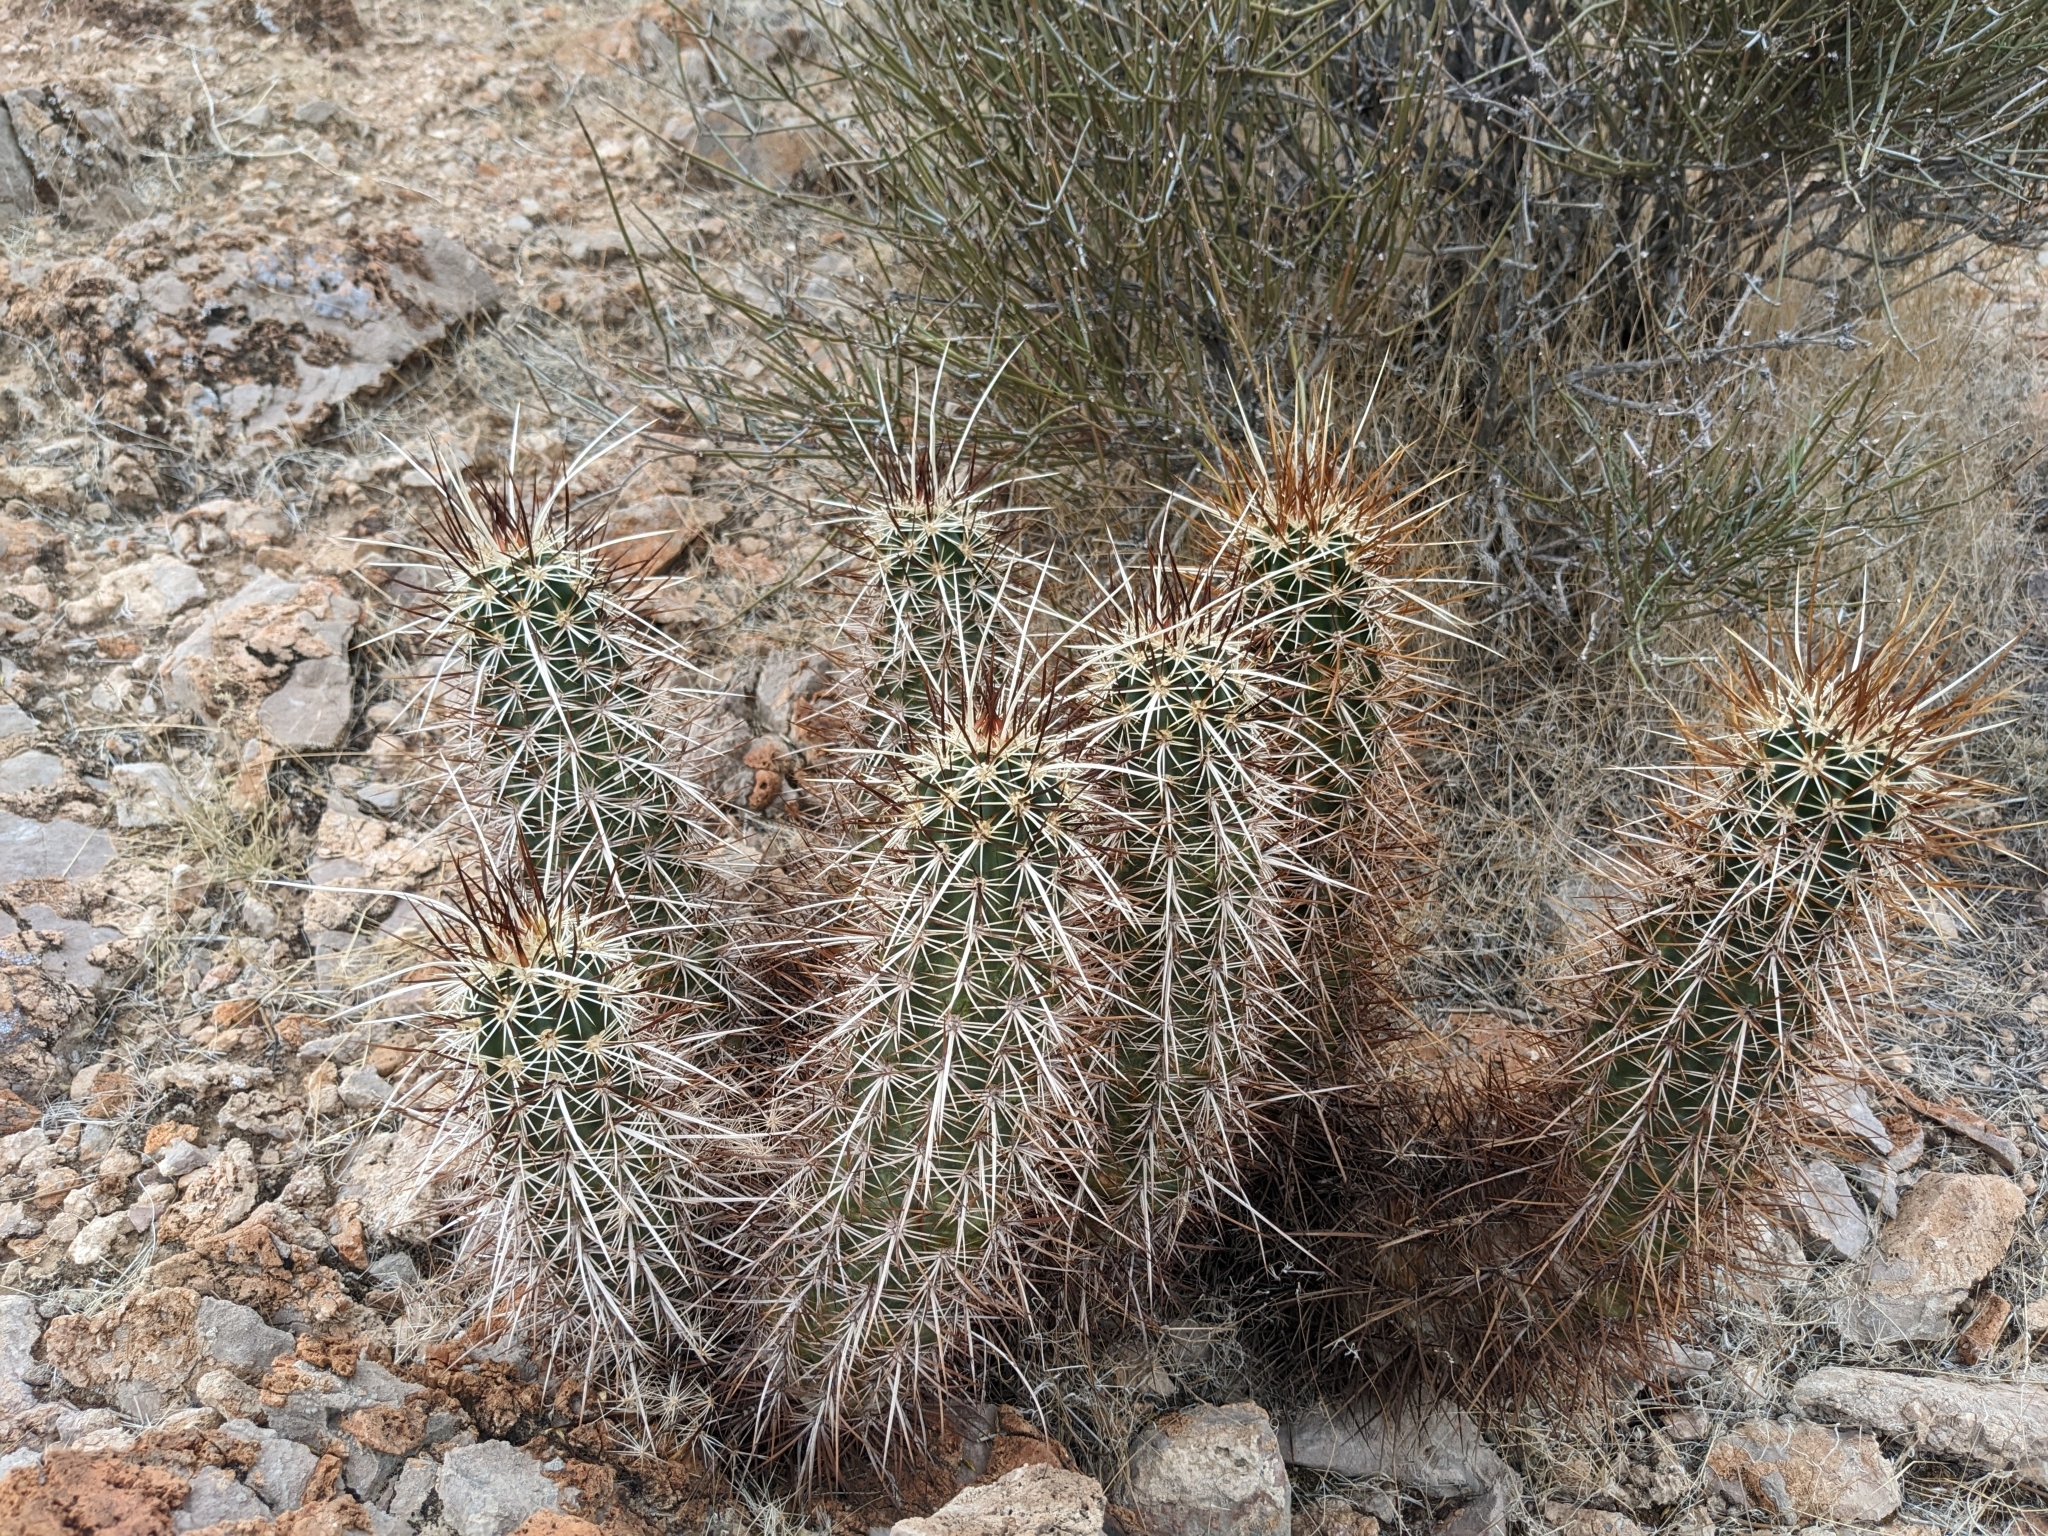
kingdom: Plantae
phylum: Tracheophyta
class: Magnoliopsida
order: Caryophyllales
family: Cactaceae
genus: Echinocereus
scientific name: Echinocereus engelmannii
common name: Engelmann's hedgehog cactus
